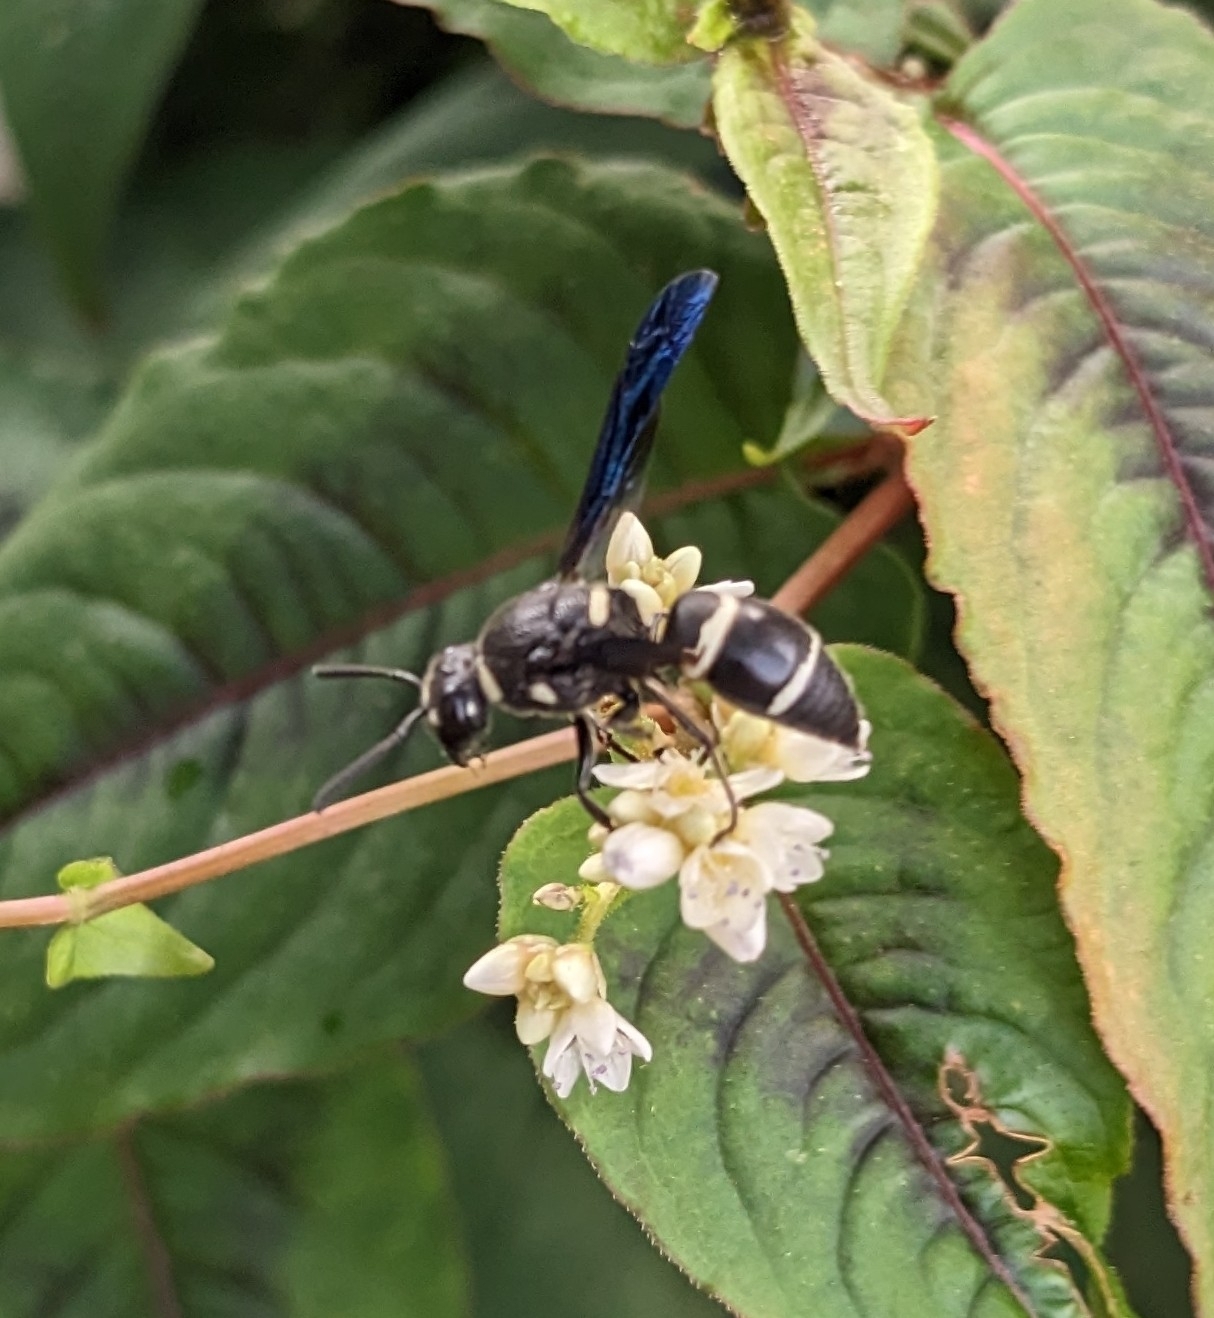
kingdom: Animalia
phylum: Arthropoda
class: Insecta
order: Hymenoptera
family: Eumenidae
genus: Euodynerus
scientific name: Euodynerus megaera
